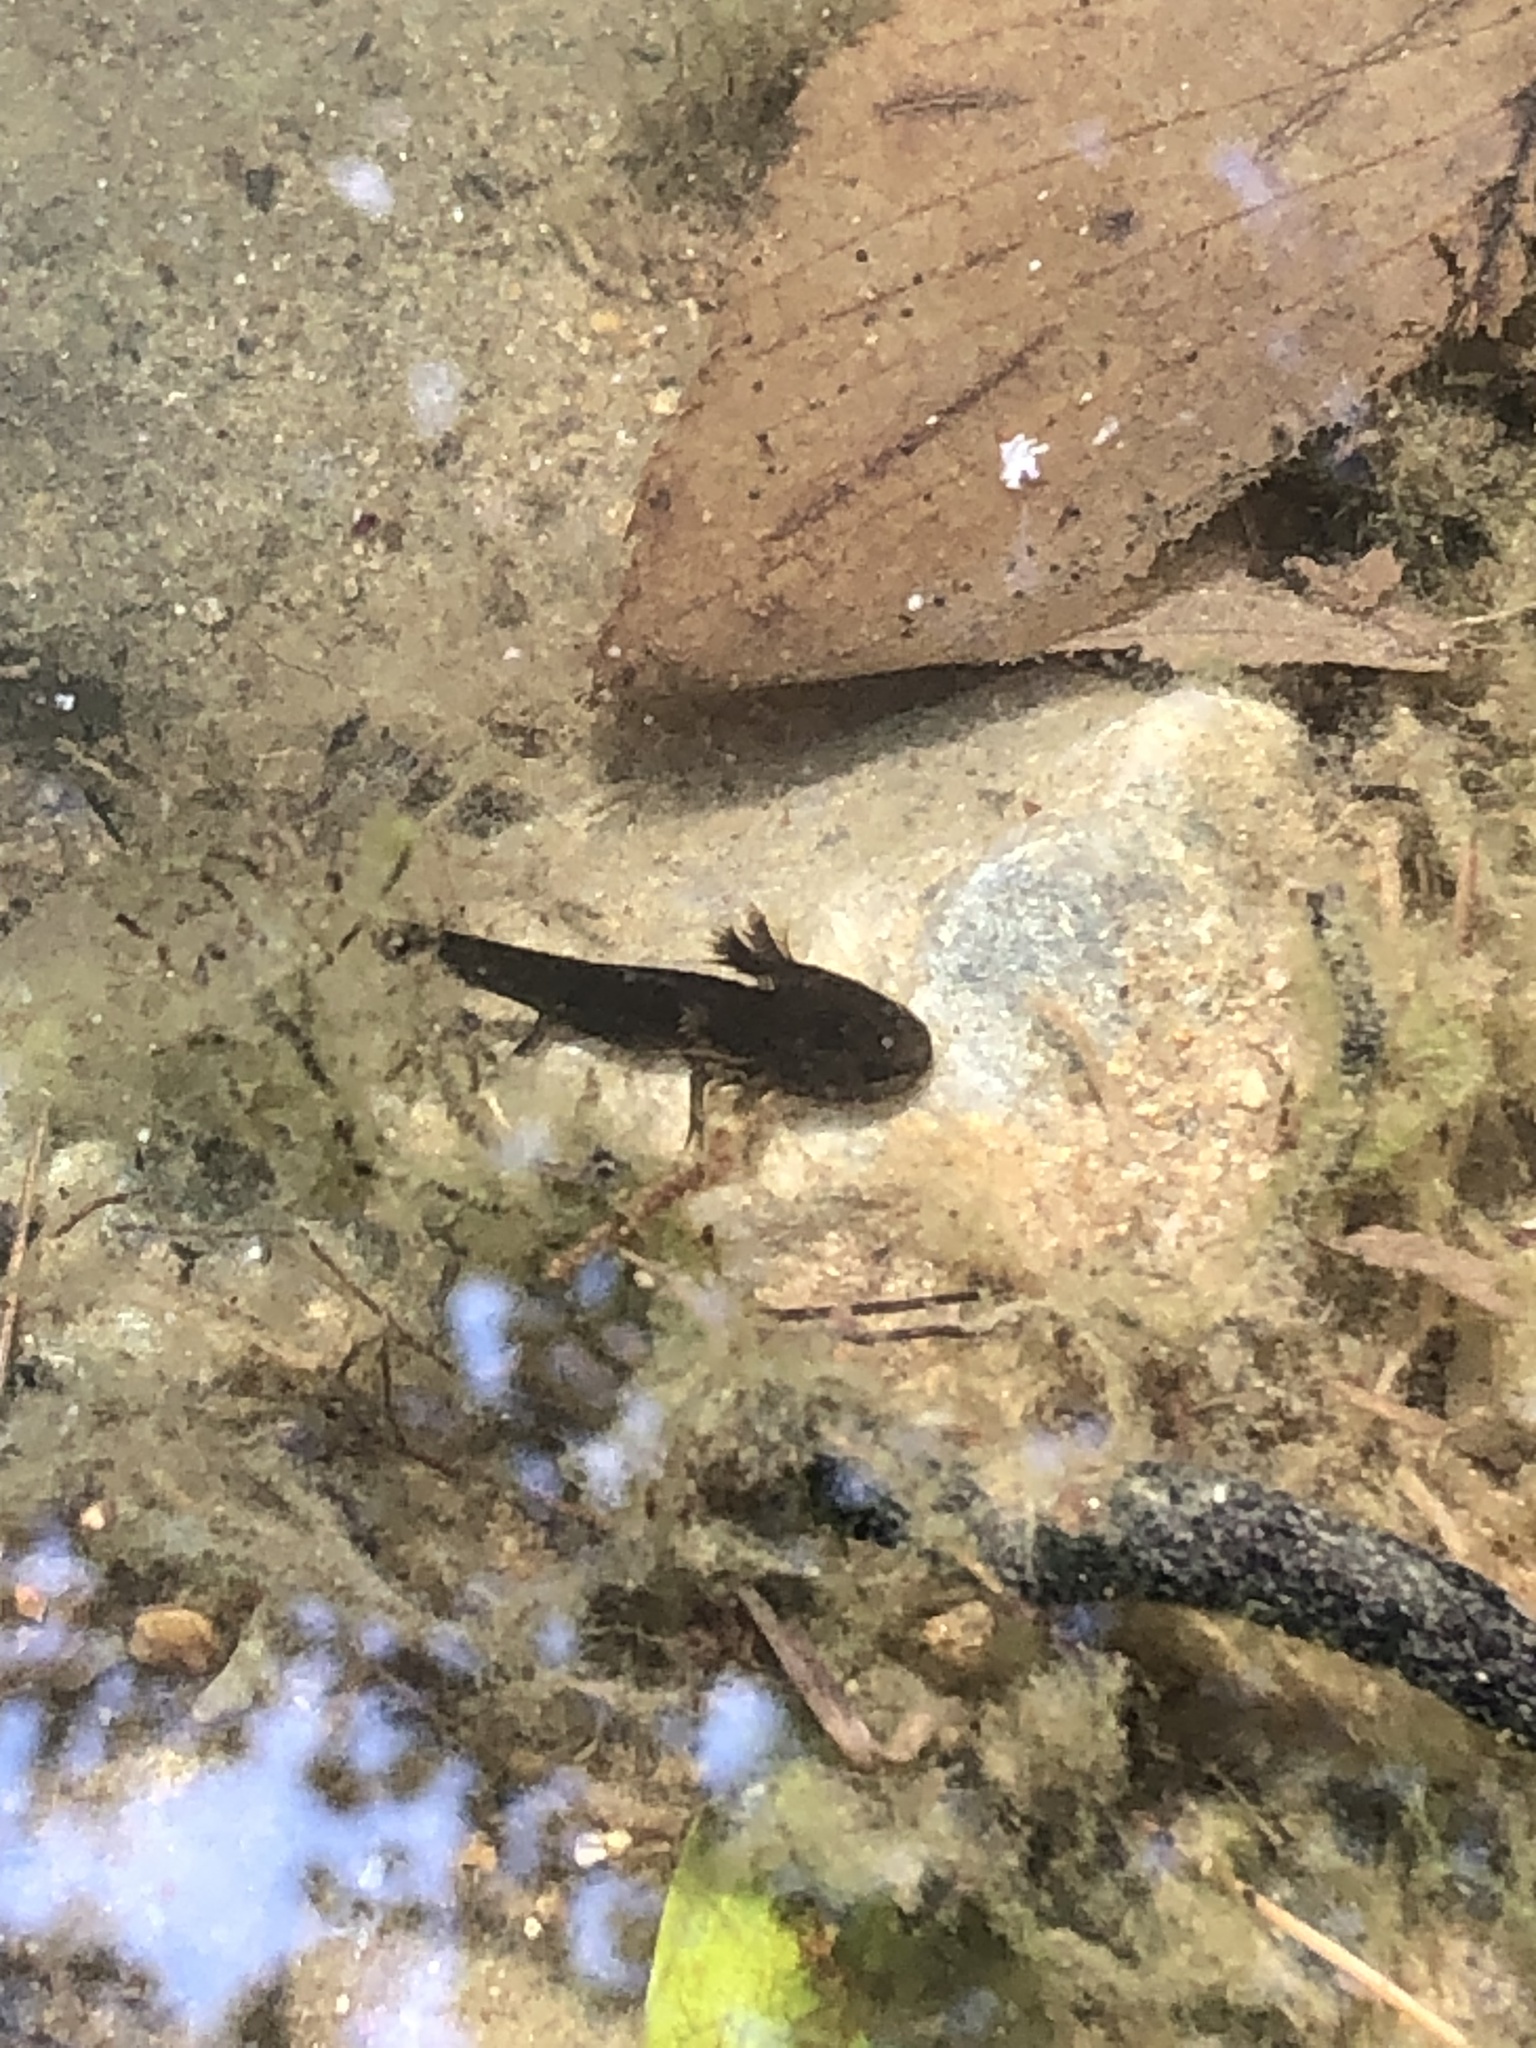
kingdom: Animalia
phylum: Chordata
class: Amphibia
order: Caudata
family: Ambystomatidae
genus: Ambystoma
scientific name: Ambystoma opacum
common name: Marbled salamander
